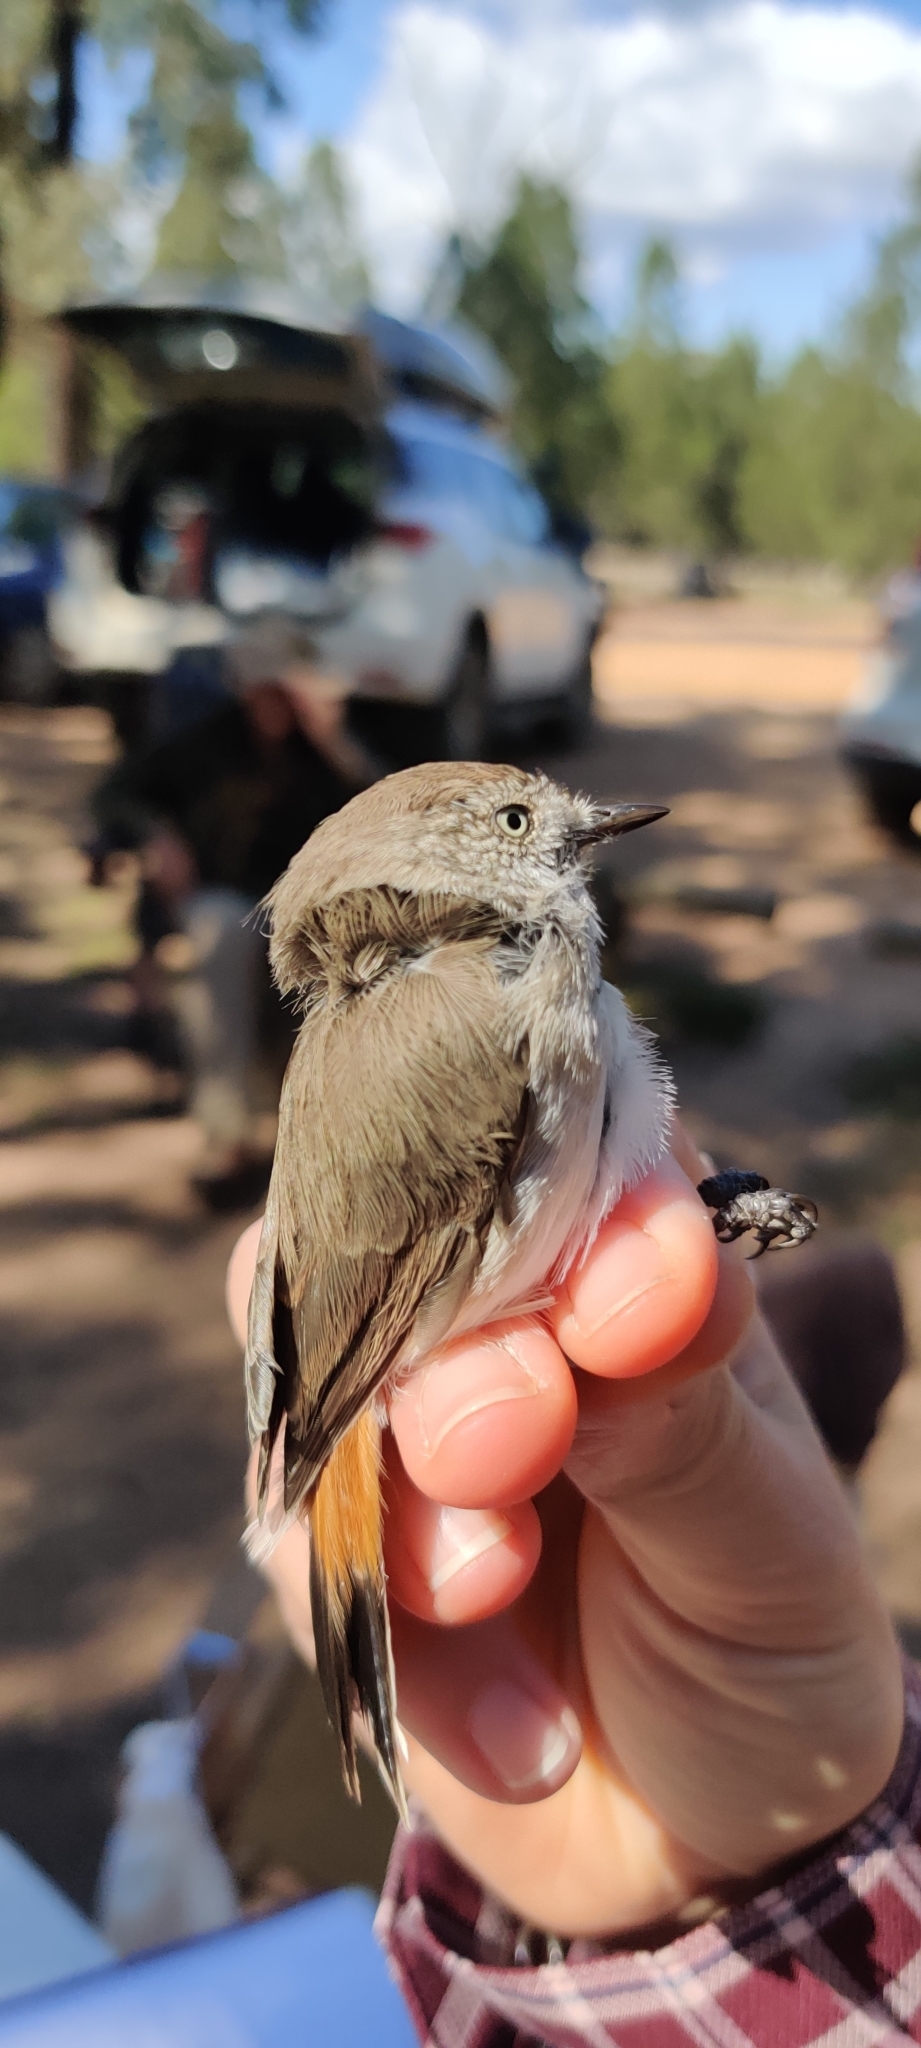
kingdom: Animalia
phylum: Chordata
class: Aves
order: Passeriformes
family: Acanthizidae
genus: Acanthiza
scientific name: Acanthiza uropygialis
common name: Chestnut-rumped thornbill
